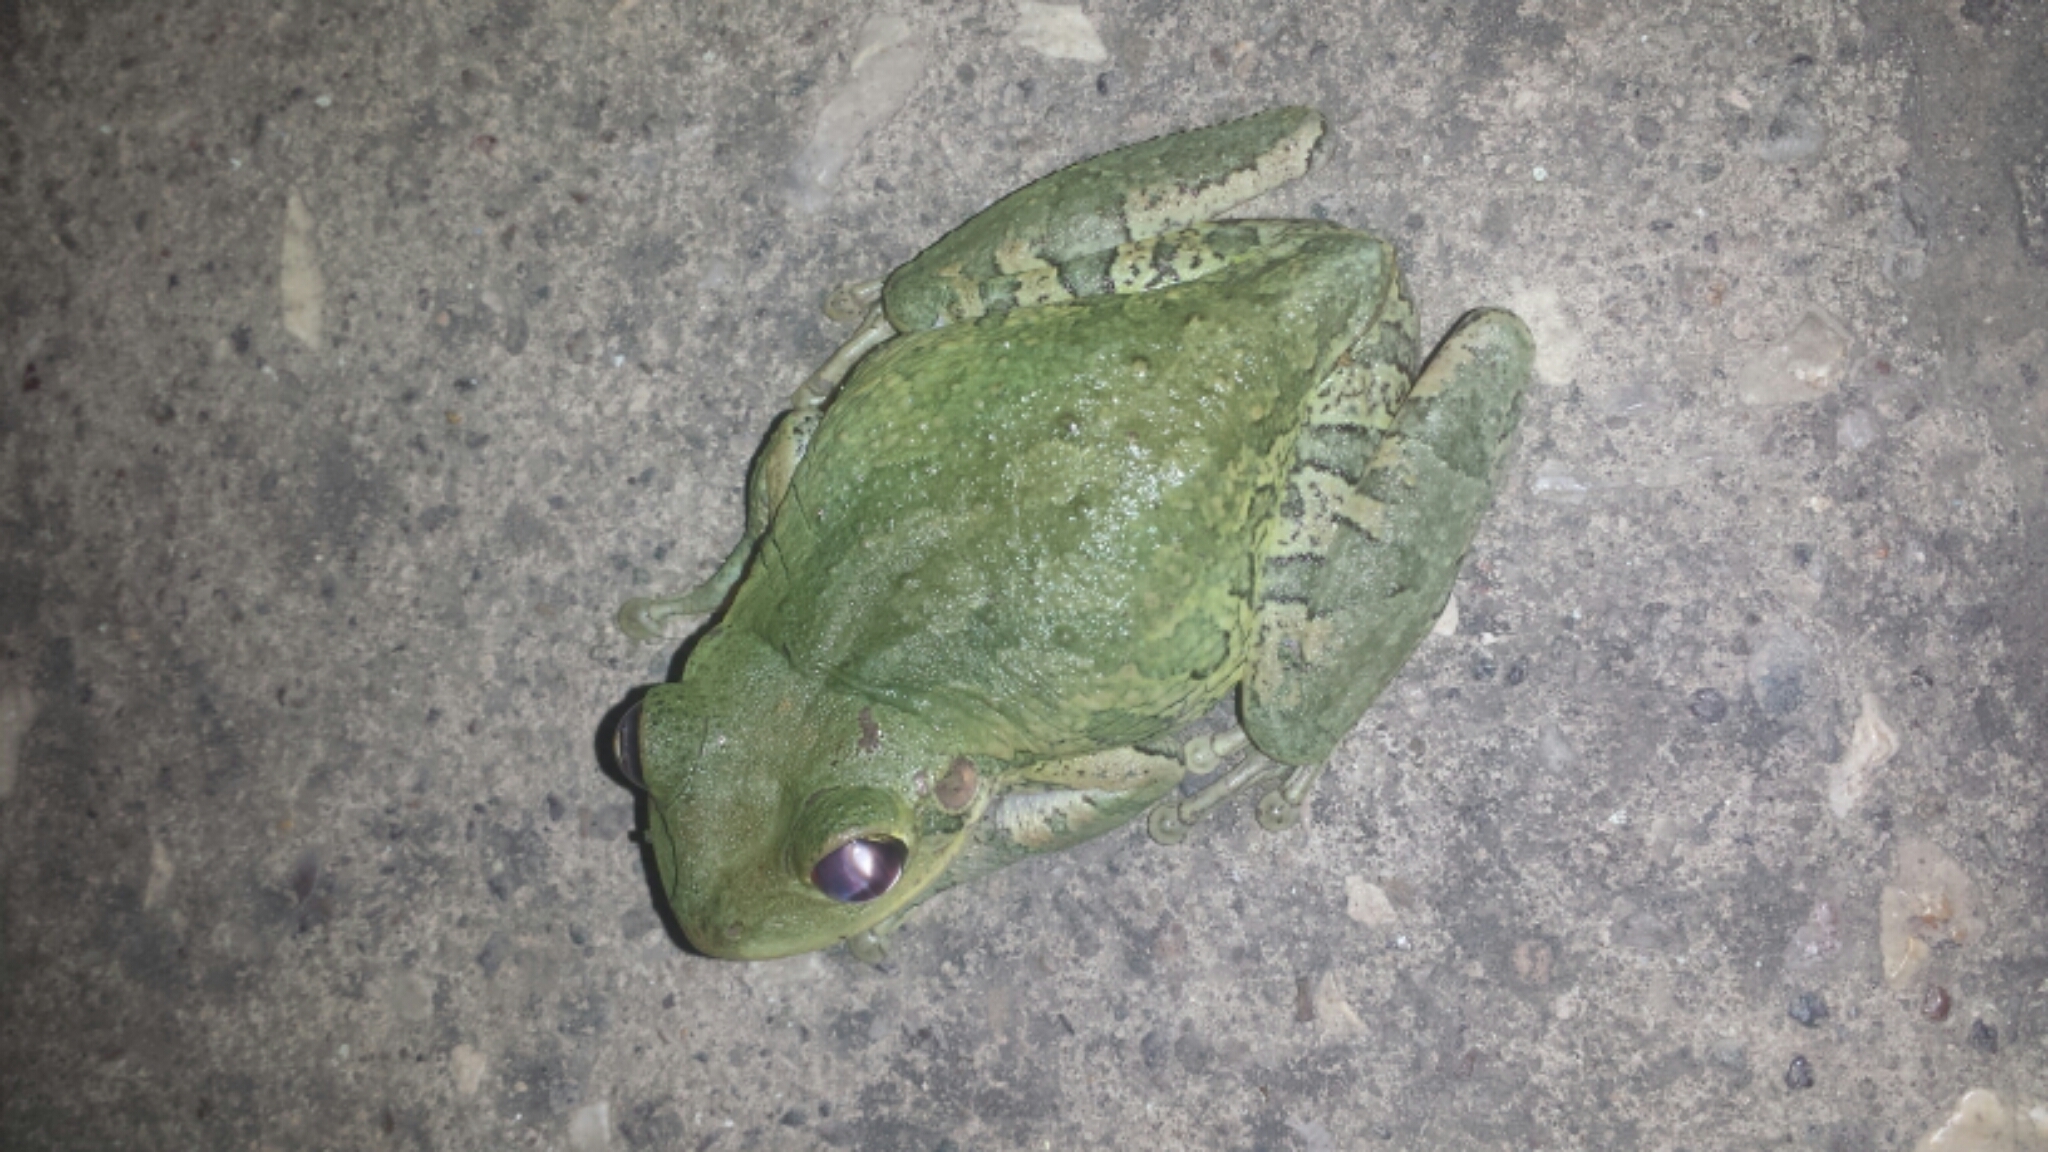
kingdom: Animalia
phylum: Chordata
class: Amphibia
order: Anura
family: Hylidae
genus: Osteopilus
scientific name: Osteopilus septentrionalis
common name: Cuban treefrog
